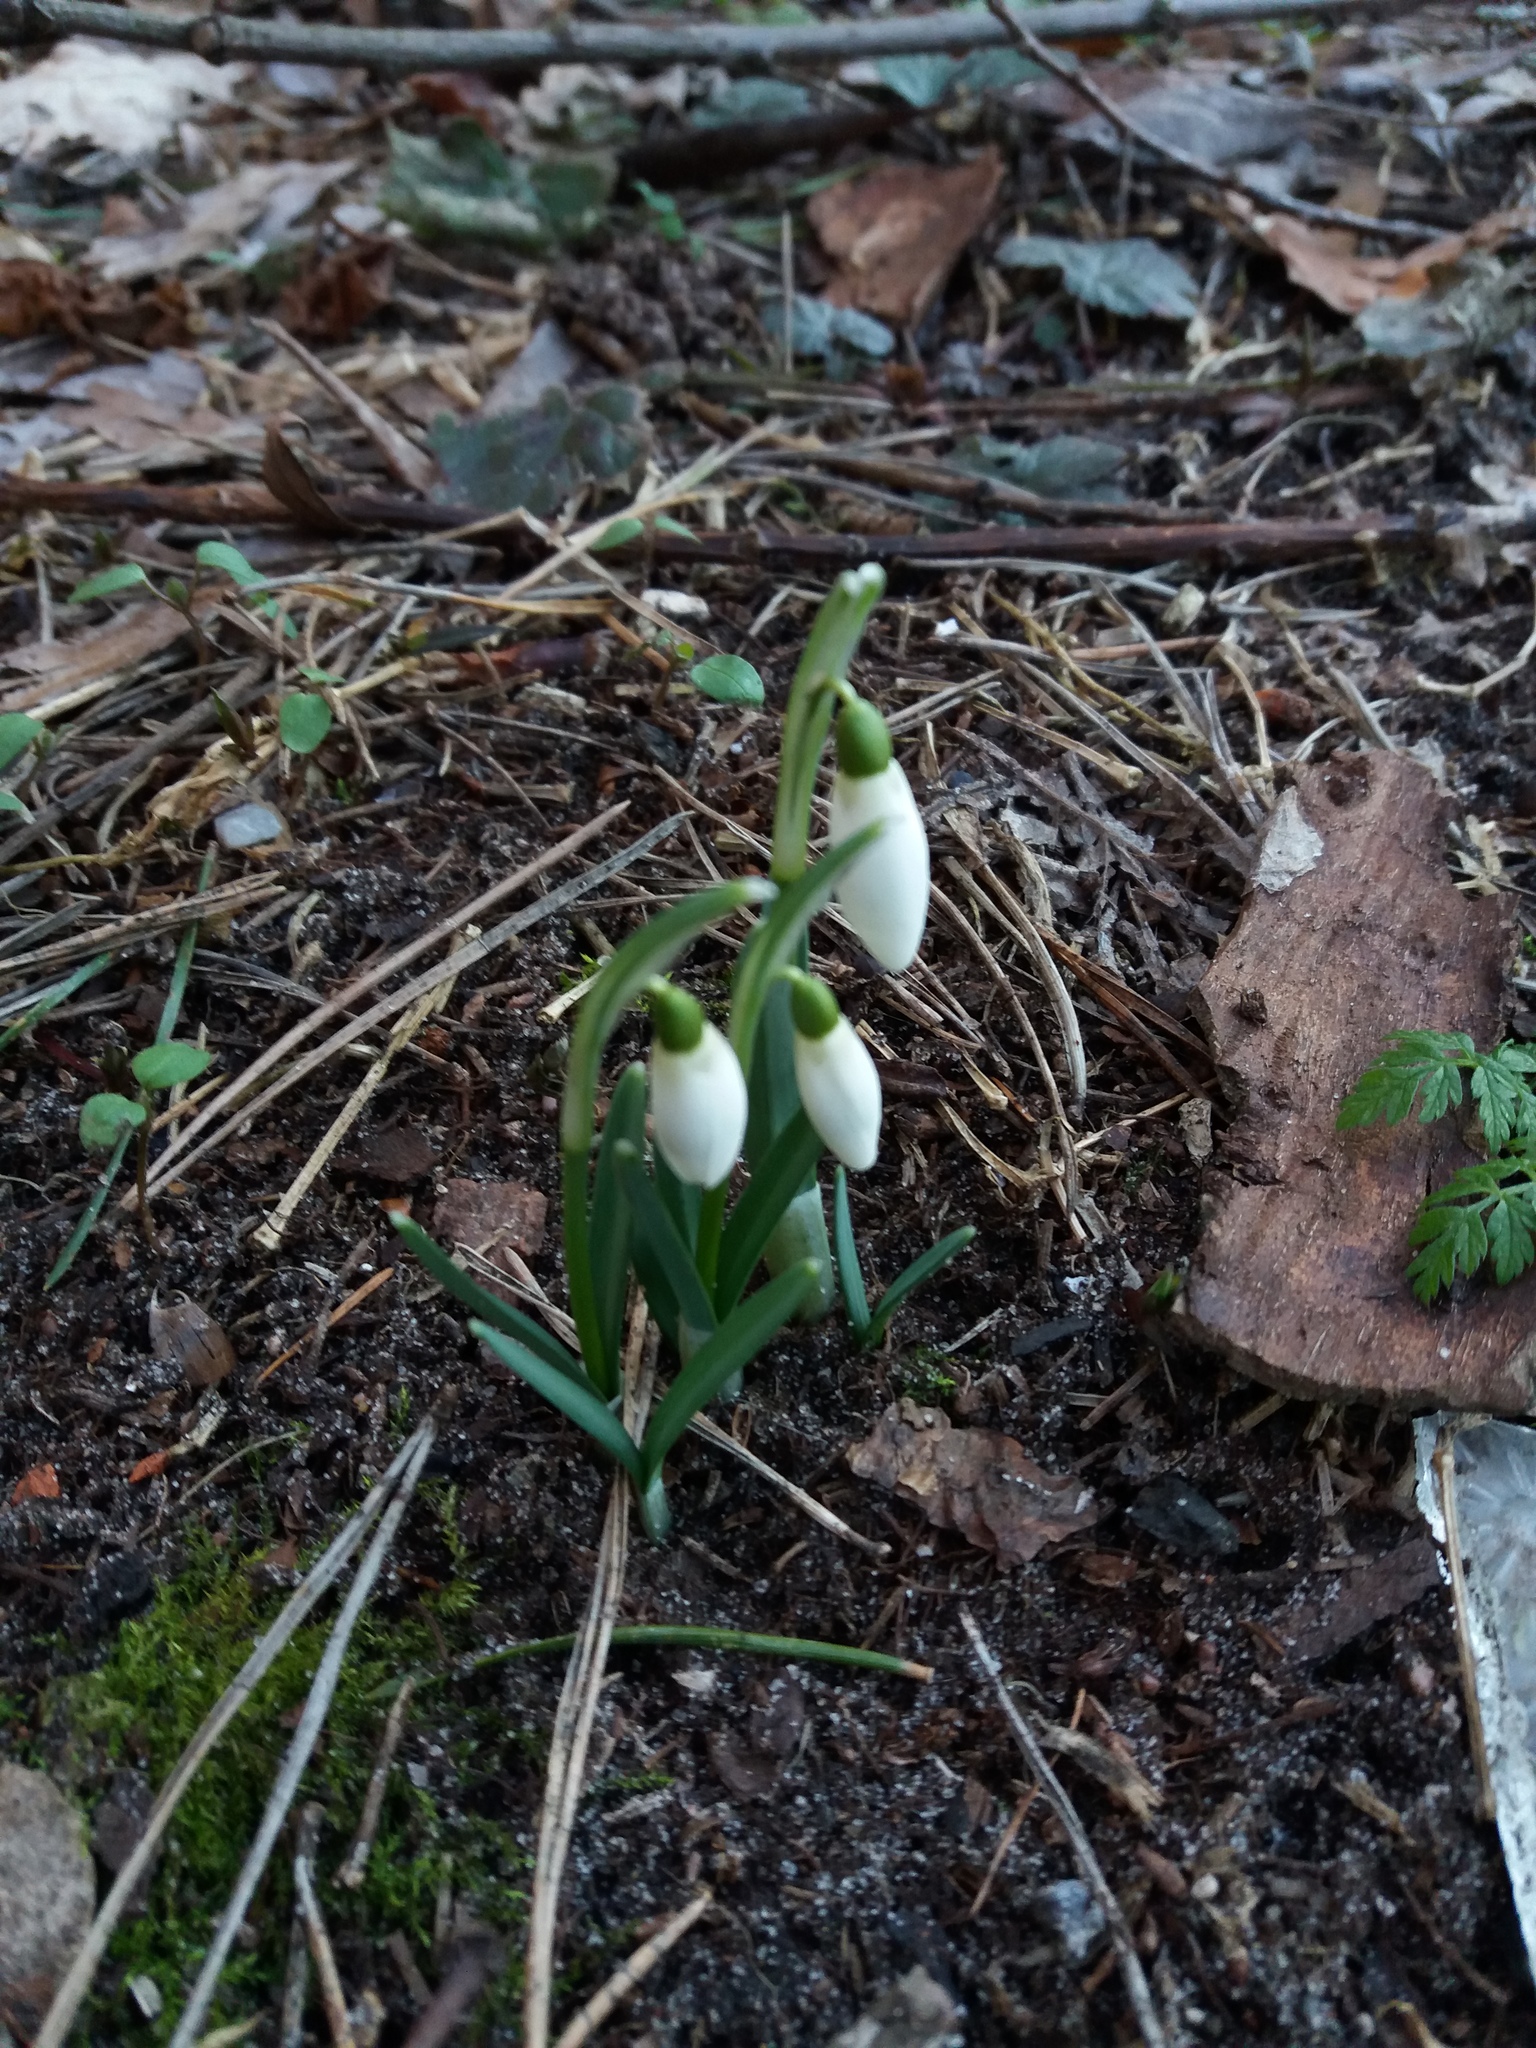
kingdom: Plantae
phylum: Tracheophyta
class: Liliopsida
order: Asparagales
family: Amaryllidaceae
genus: Galanthus
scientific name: Galanthus nivalis
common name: Snowdrop
